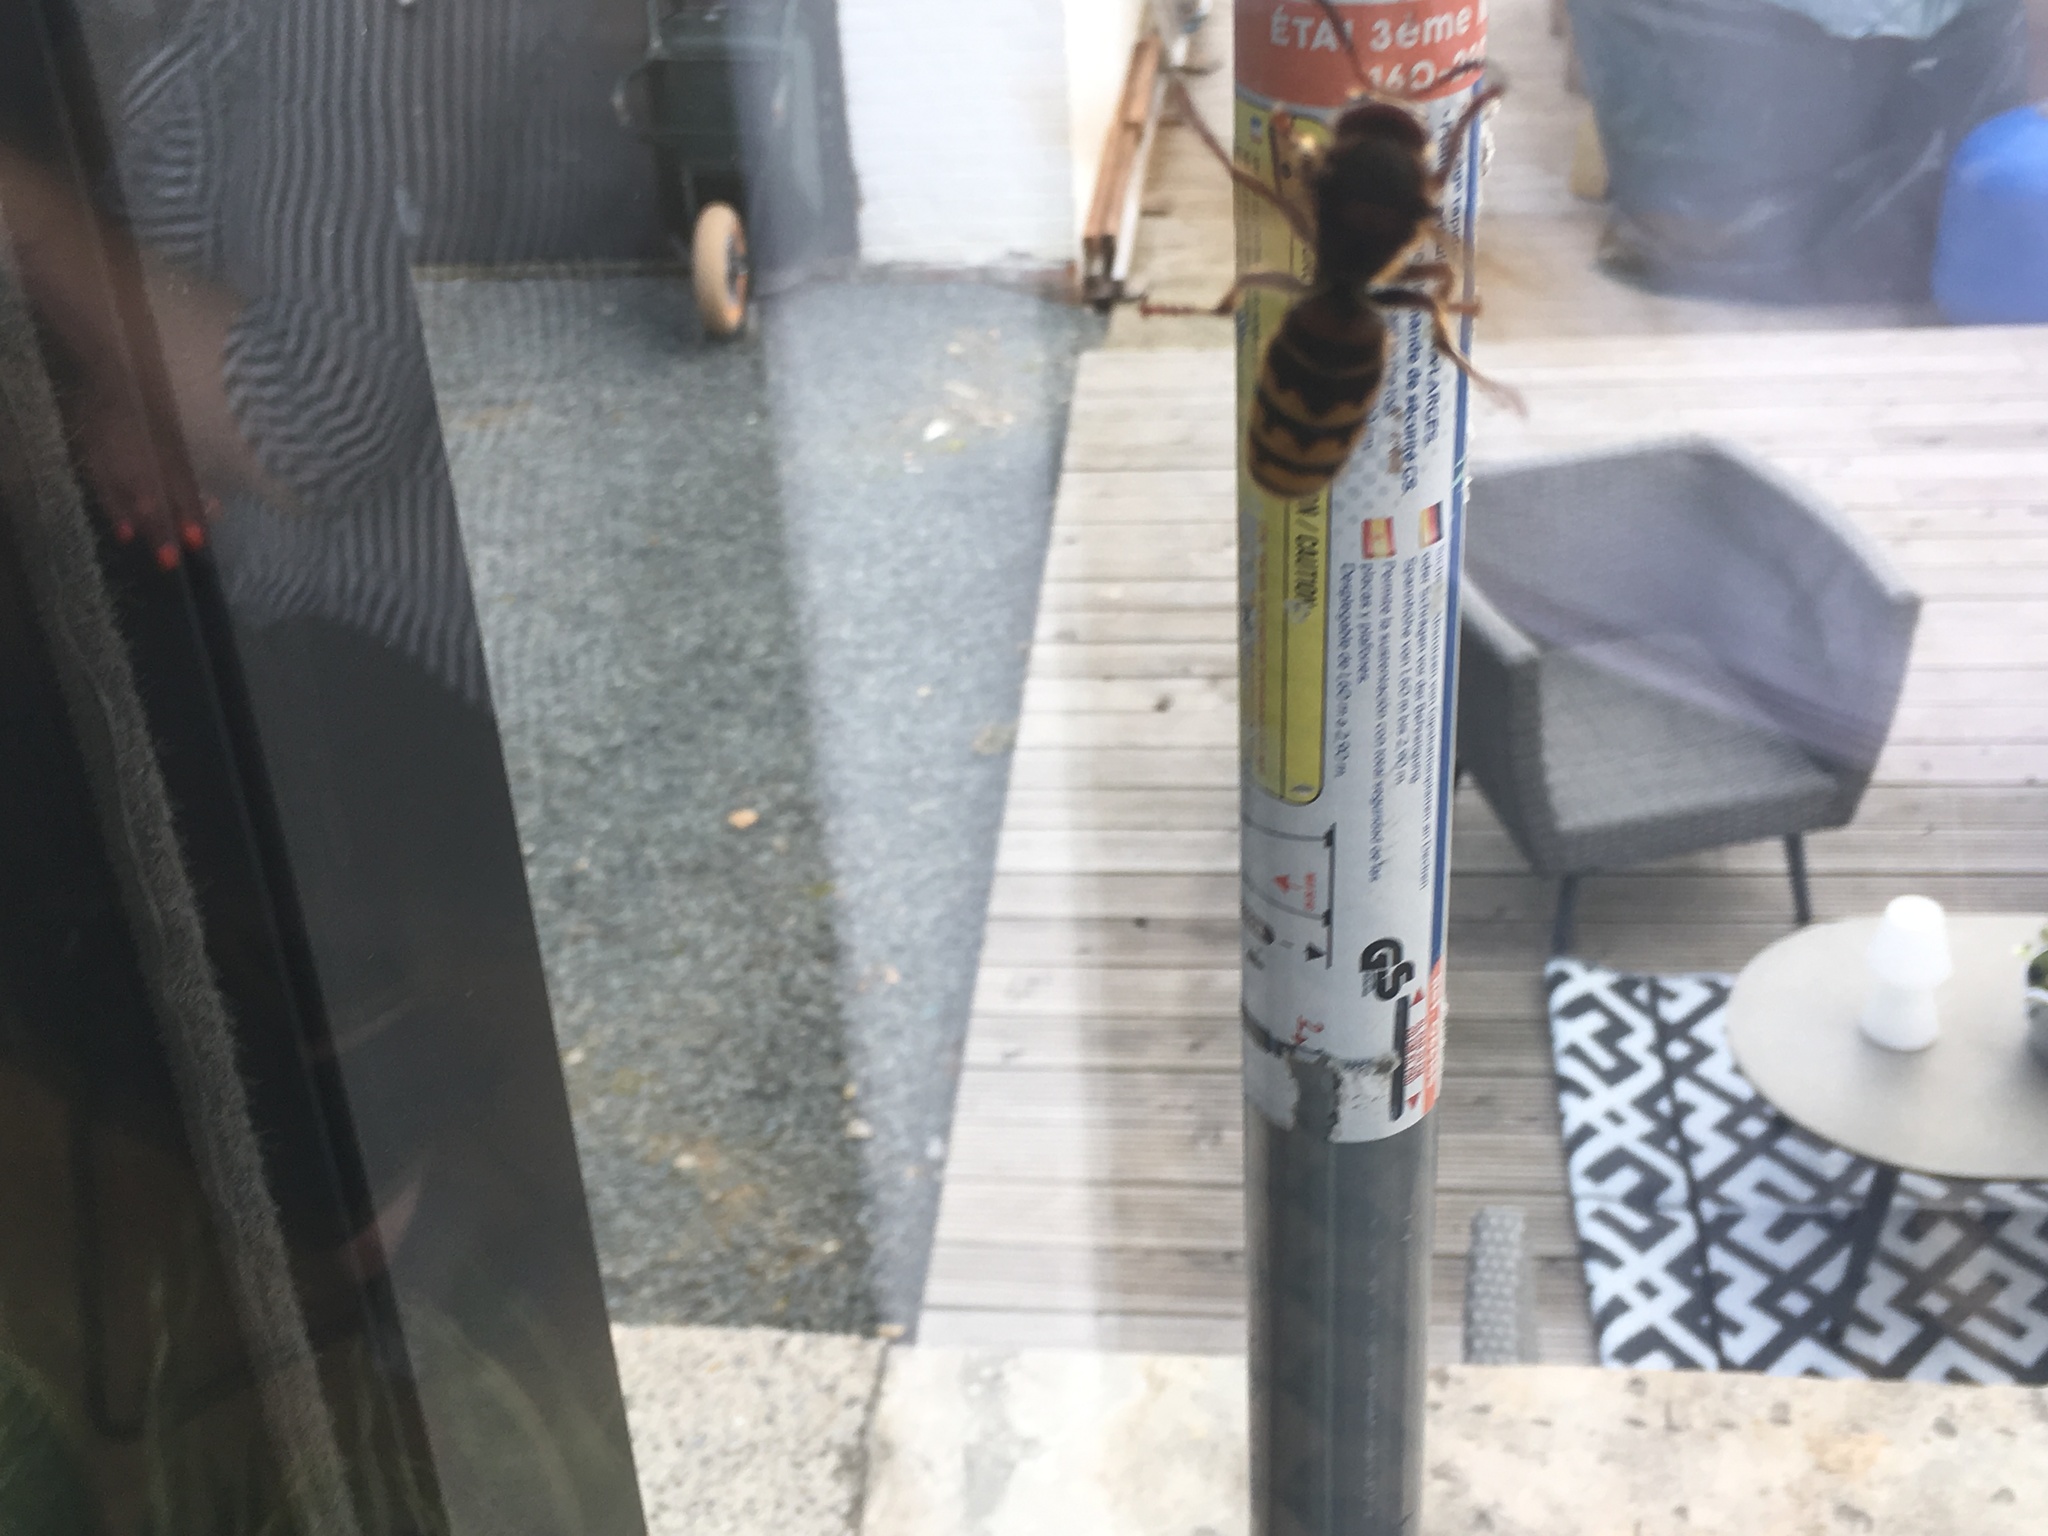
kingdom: Animalia
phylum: Arthropoda
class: Insecta
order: Hymenoptera
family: Vespidae
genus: Vespa
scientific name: Vespa crabro
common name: Hornet
